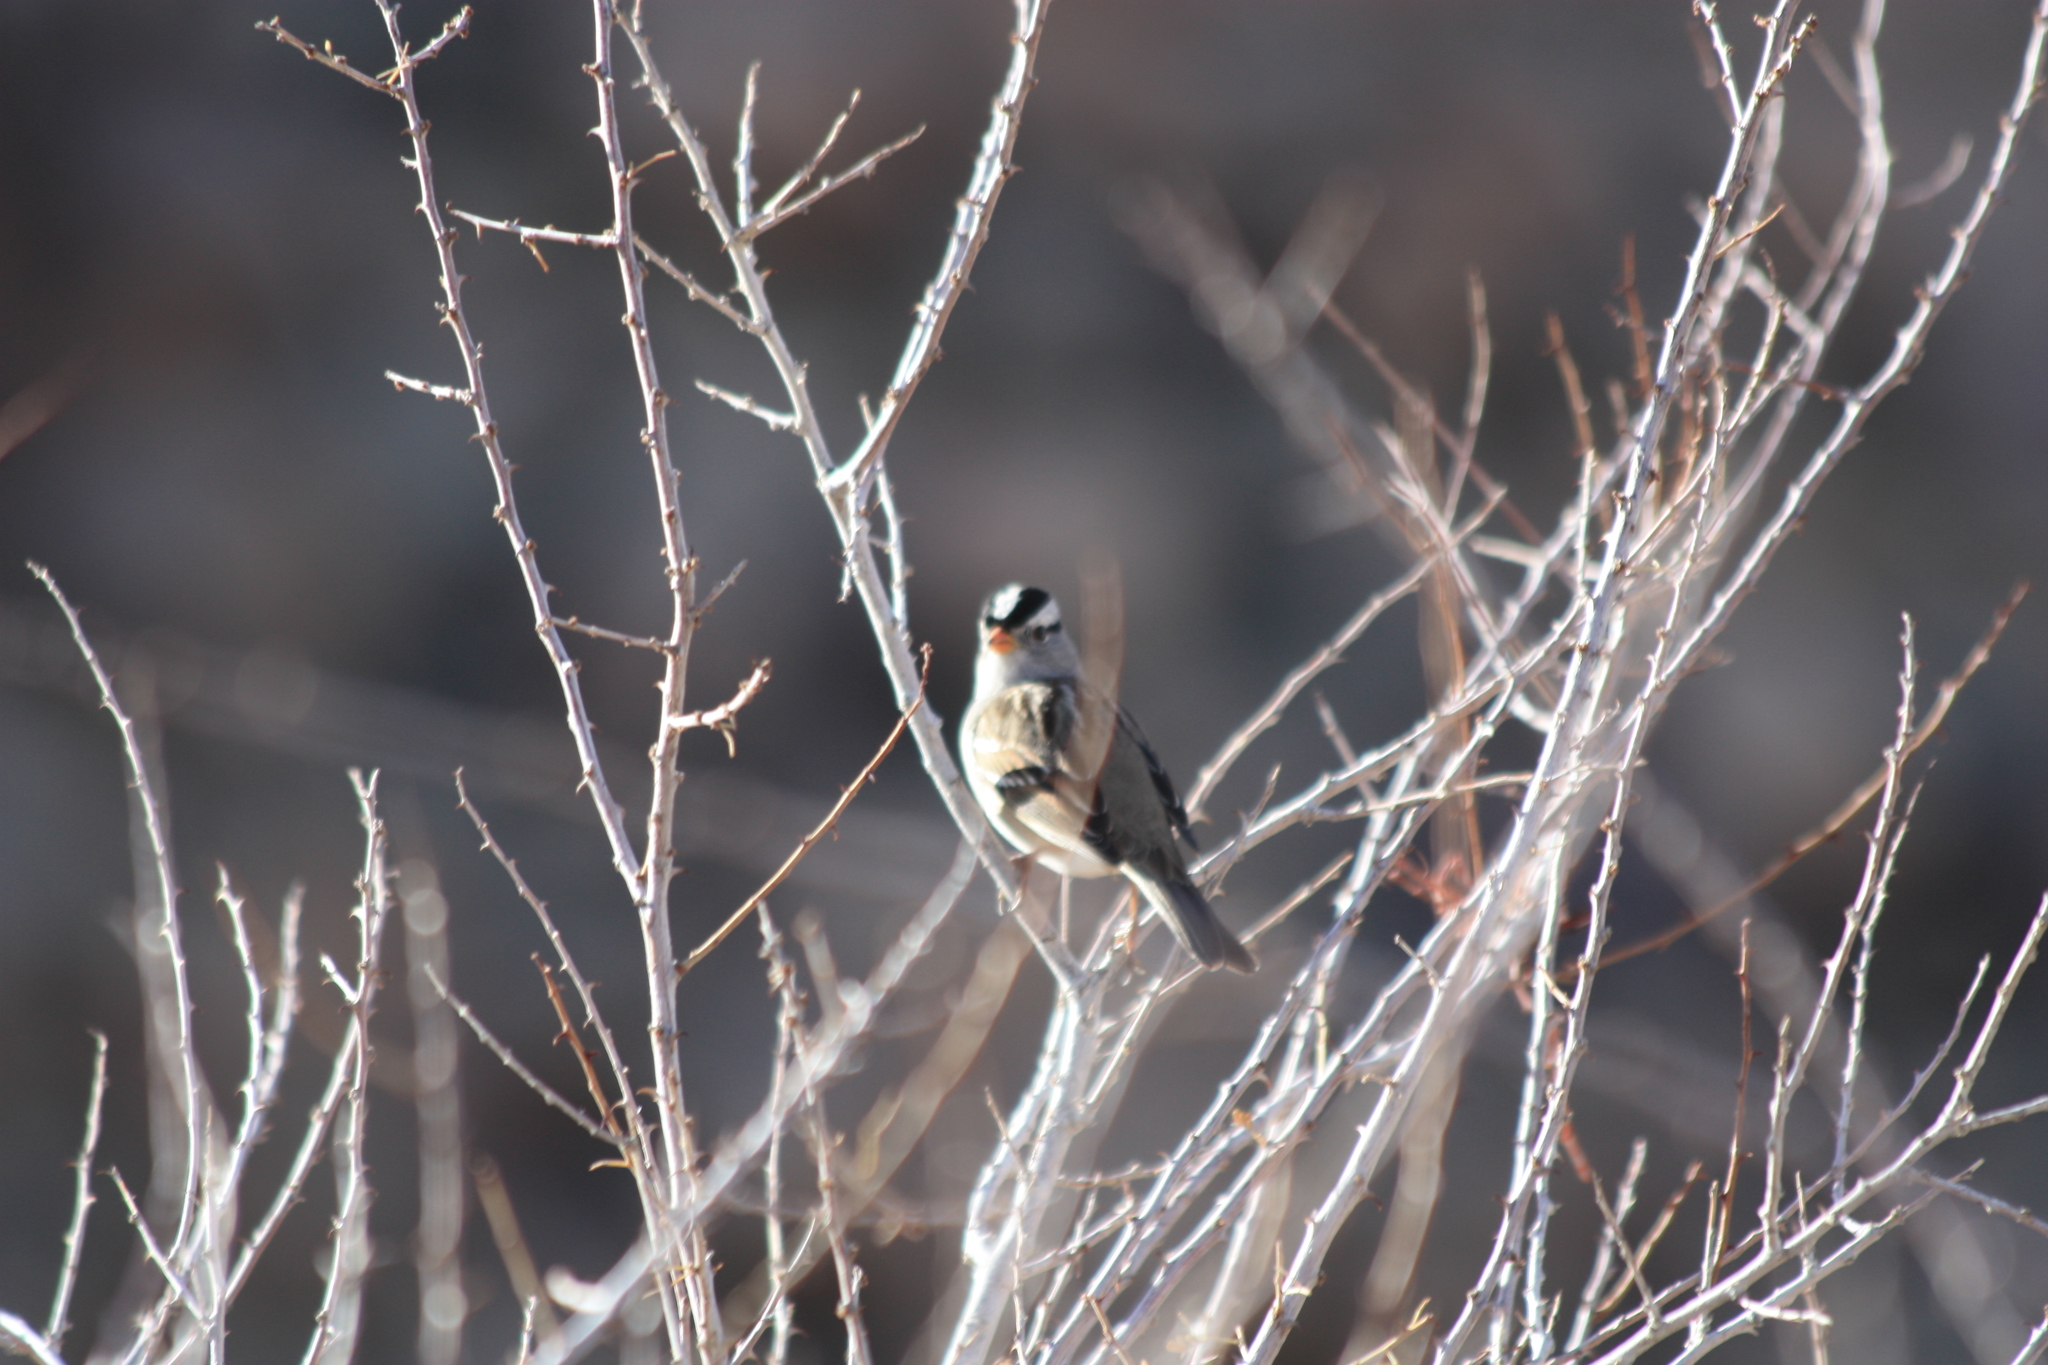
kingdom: Animalia
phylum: Chordata
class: Aves
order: Passeriformes
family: Passerellidae
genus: Zonotrichia
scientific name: Zonotrichia leucophrys
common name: White-crowned sparrow
